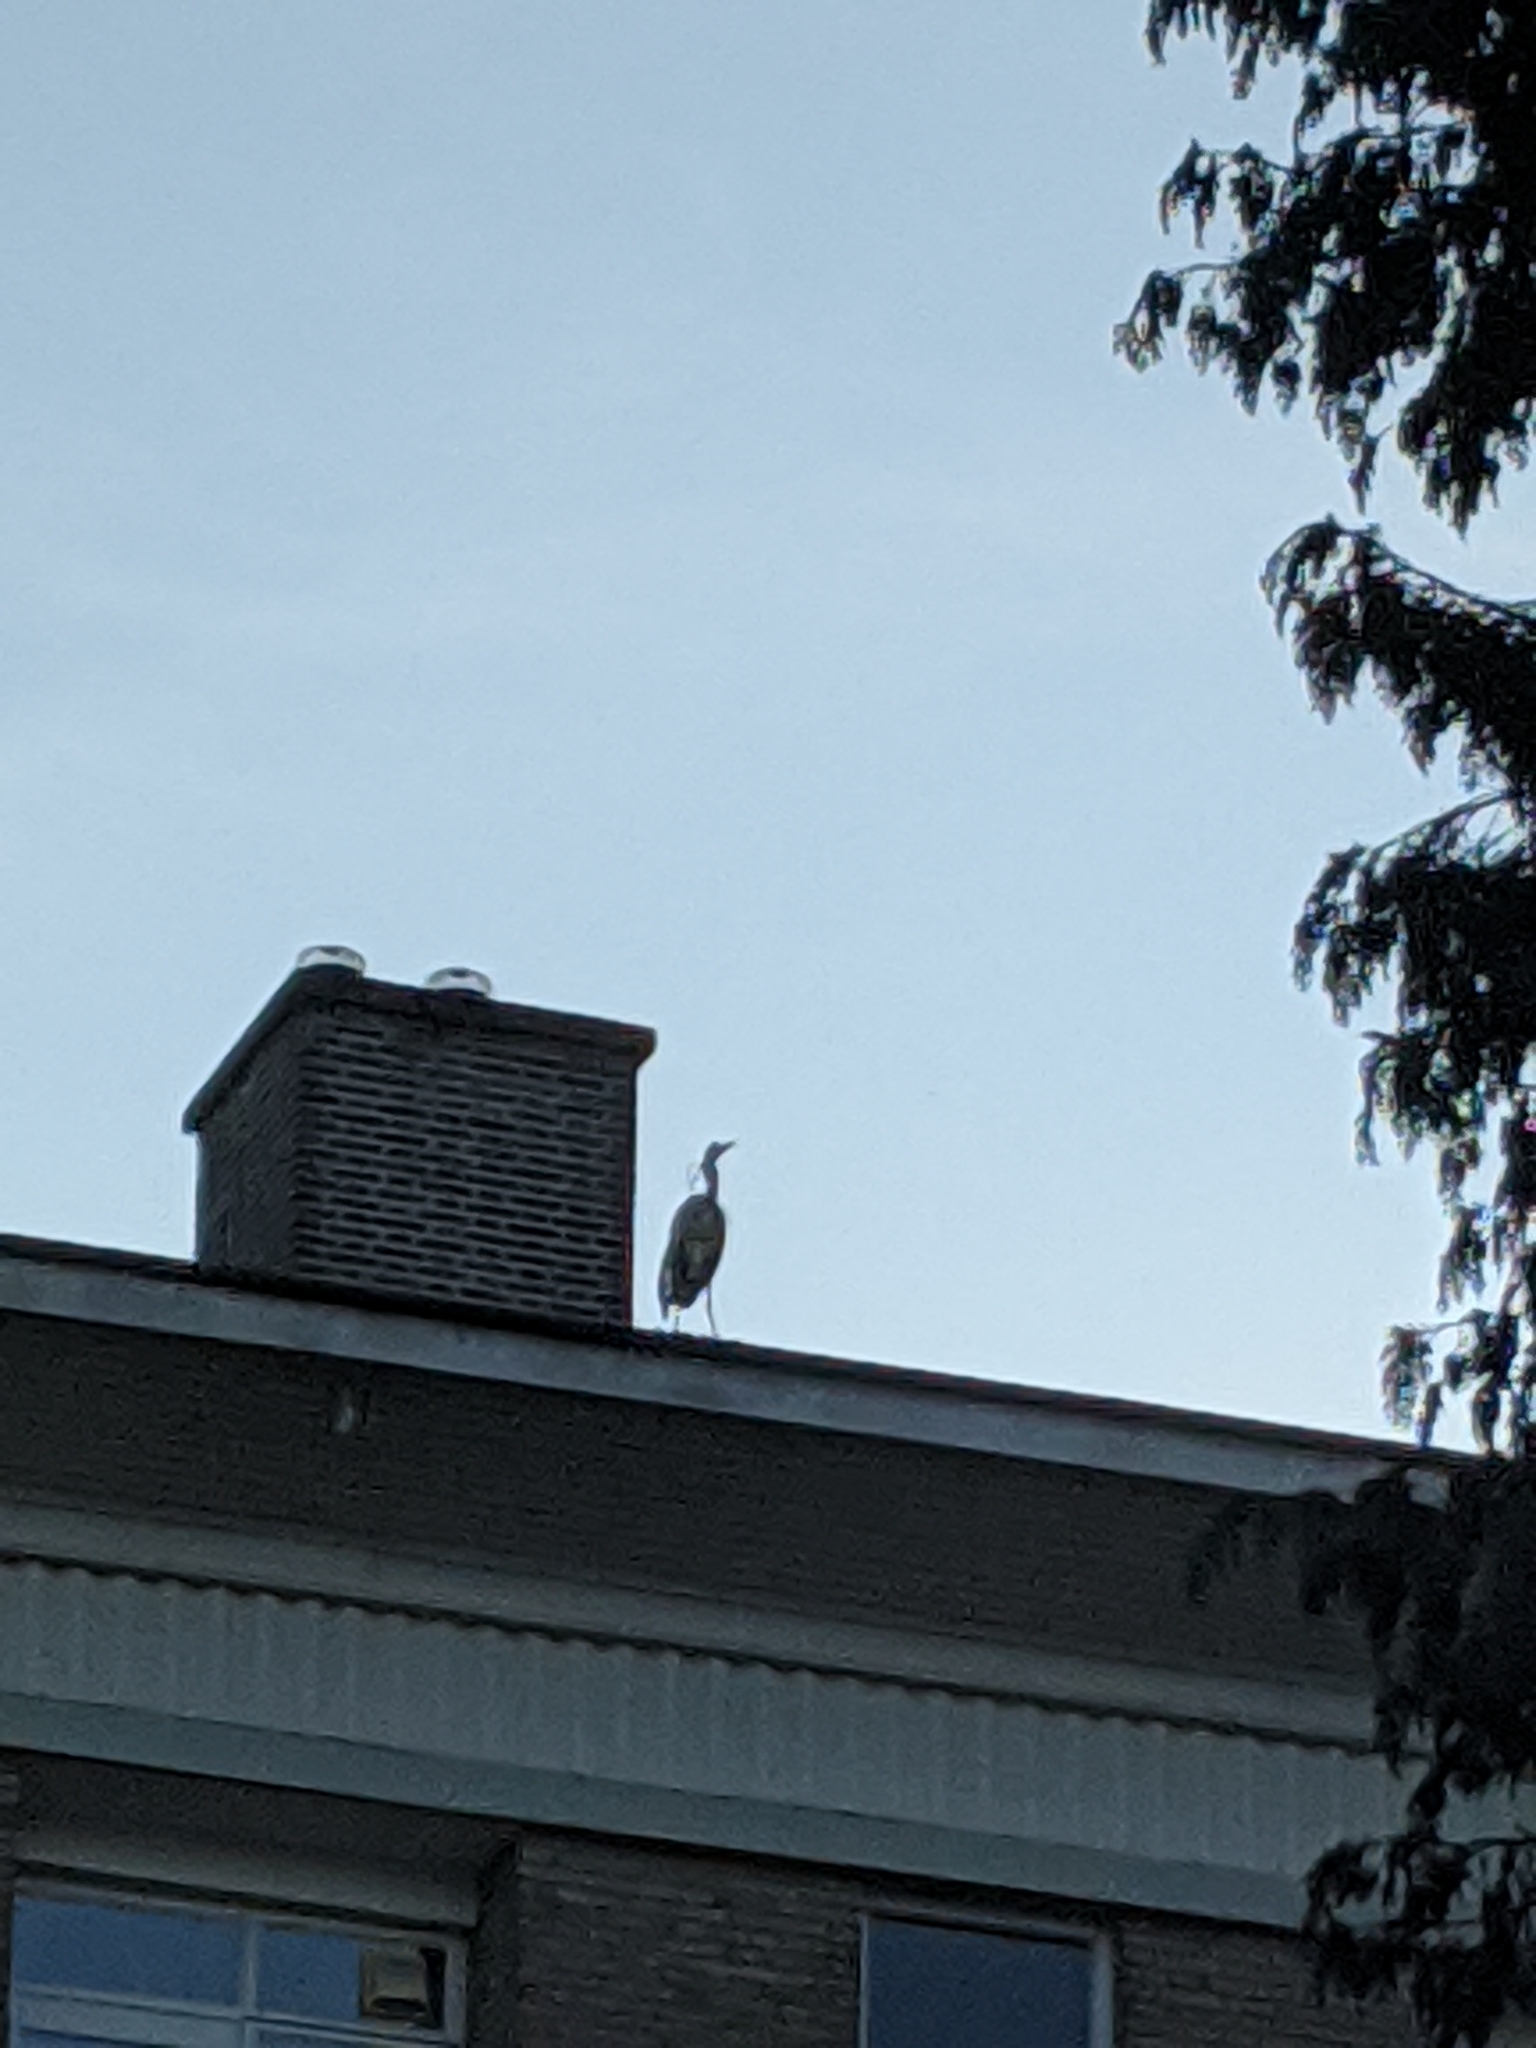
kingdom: Animalia
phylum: Chordata
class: Aves
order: Pelecaniformes
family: Ardeidae
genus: Ardea
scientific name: Ardea cinerea
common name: Grey heron
